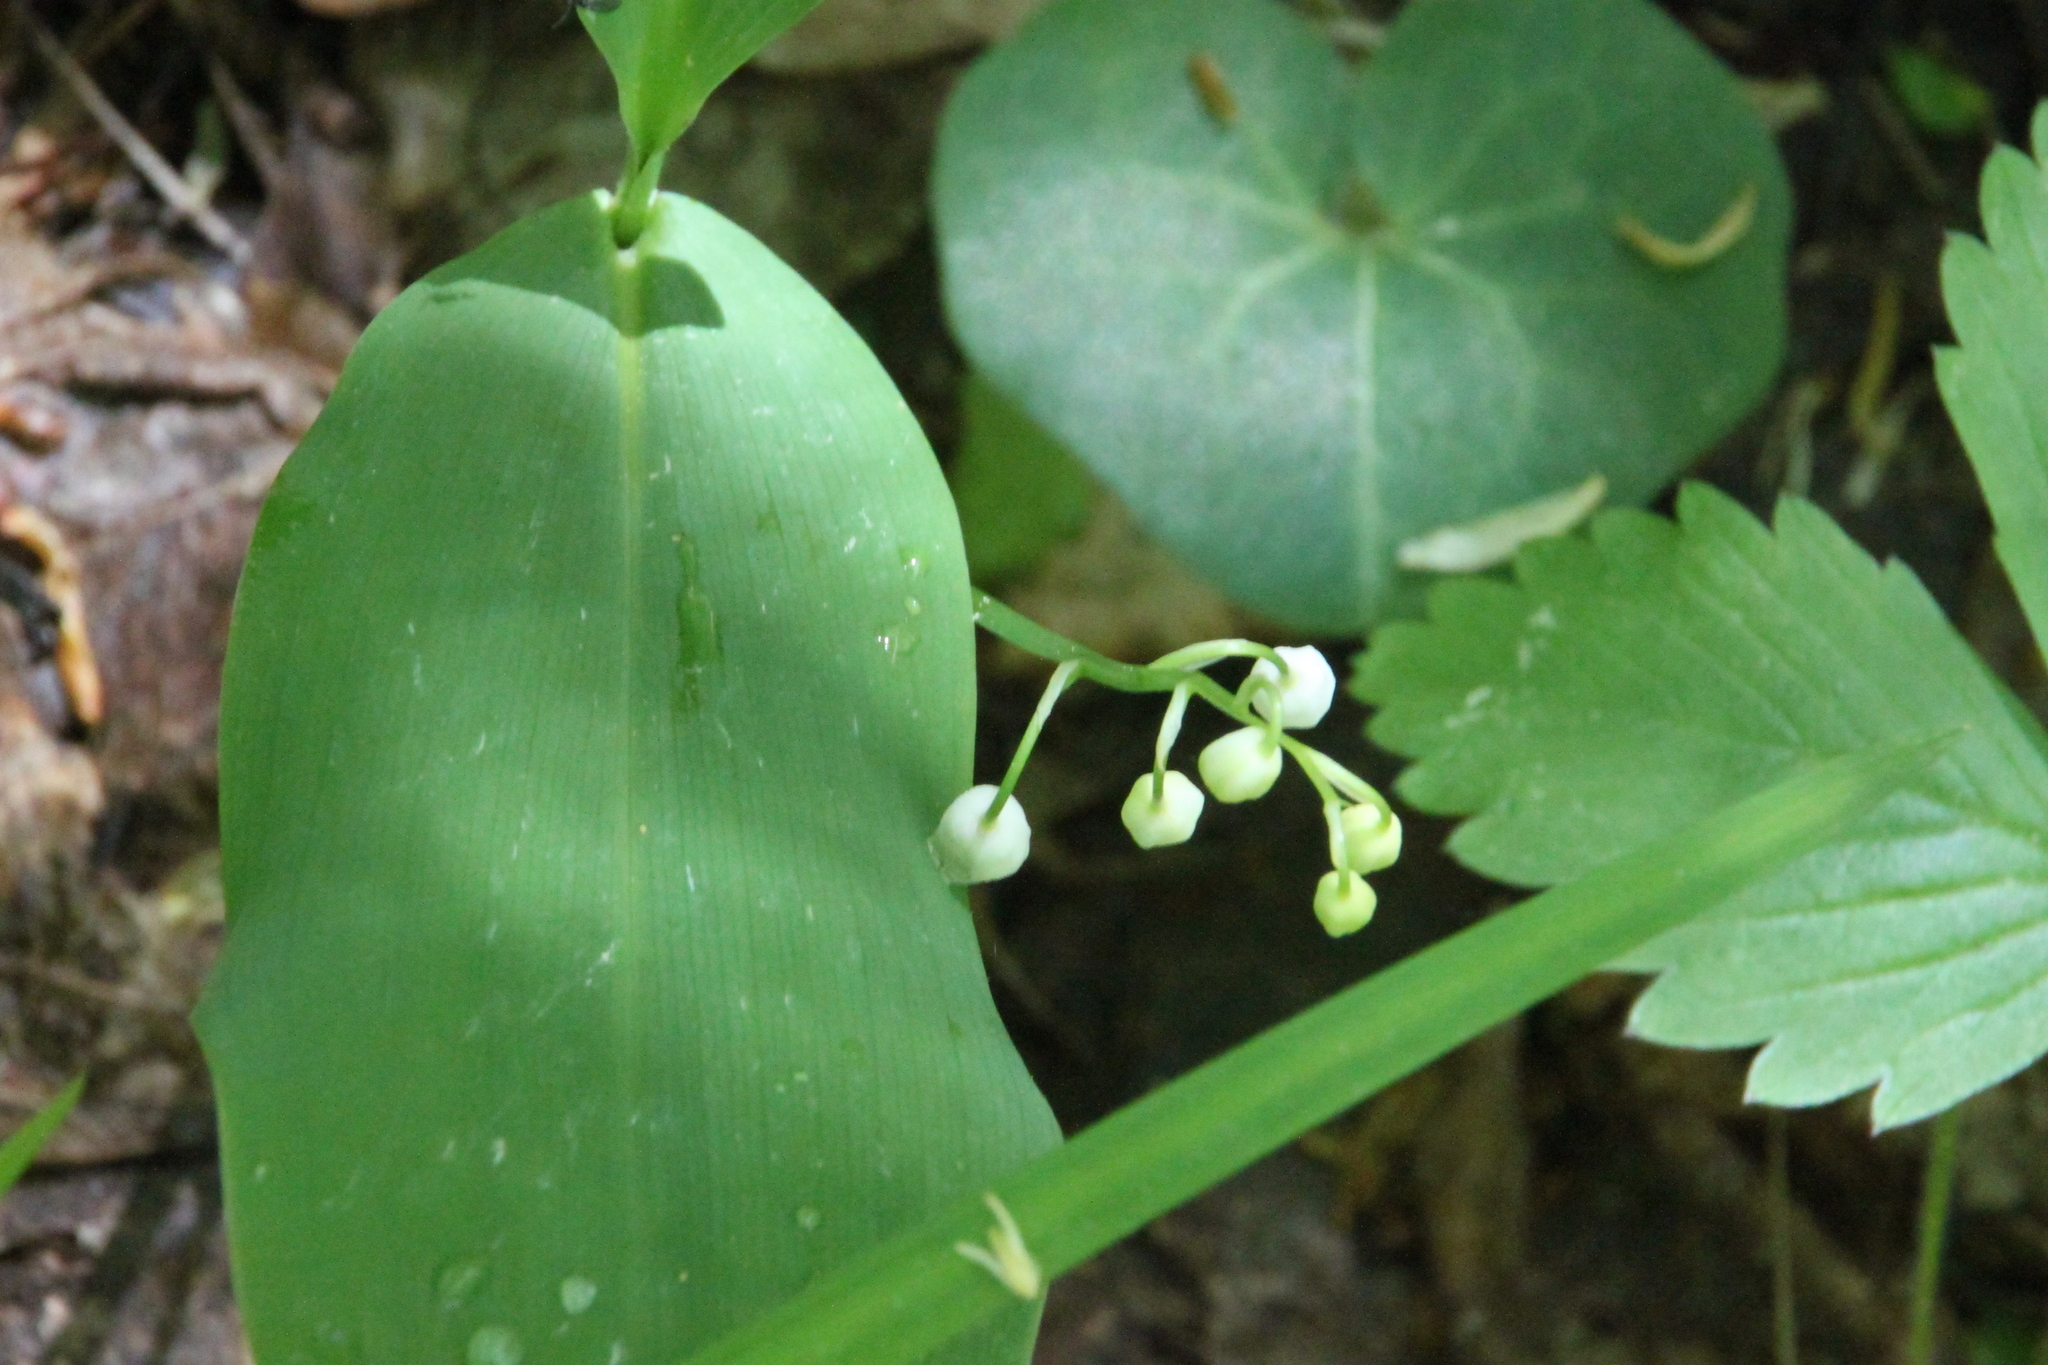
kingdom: Plantae
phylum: Tracheophyta
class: Liliopsida
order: Asparagales
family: Asparagaceae
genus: Convallaria
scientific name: Convallaria majalis
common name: Lily-of-the-valley
